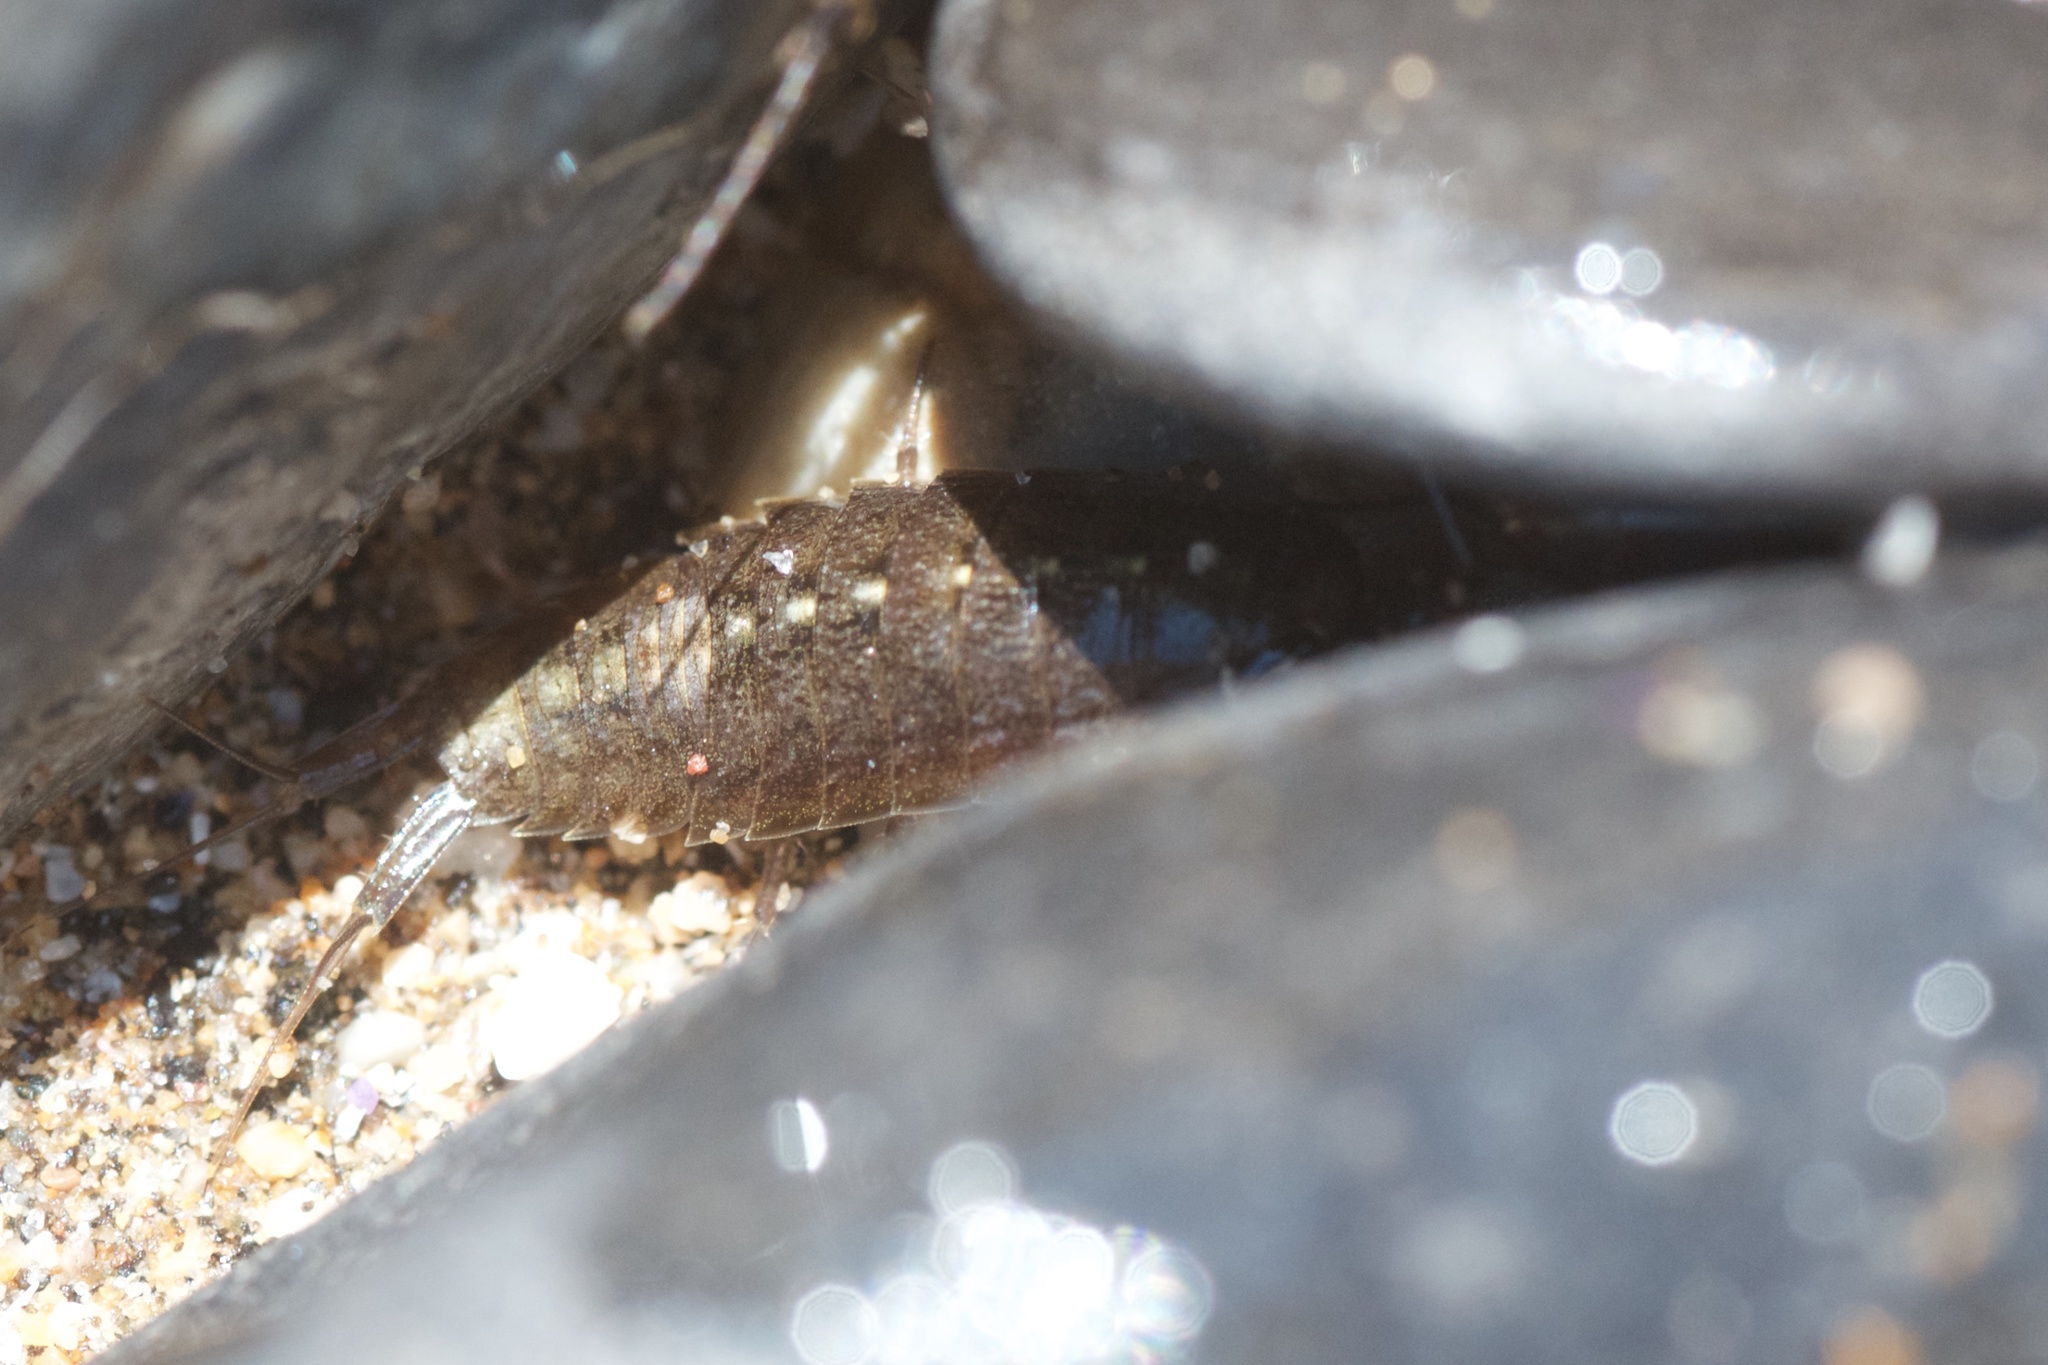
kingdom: Animalia
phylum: Arthropoda
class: Malacostraca
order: Isopoda
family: Ligiidae
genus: Ligia
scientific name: Ligia occidentalis
